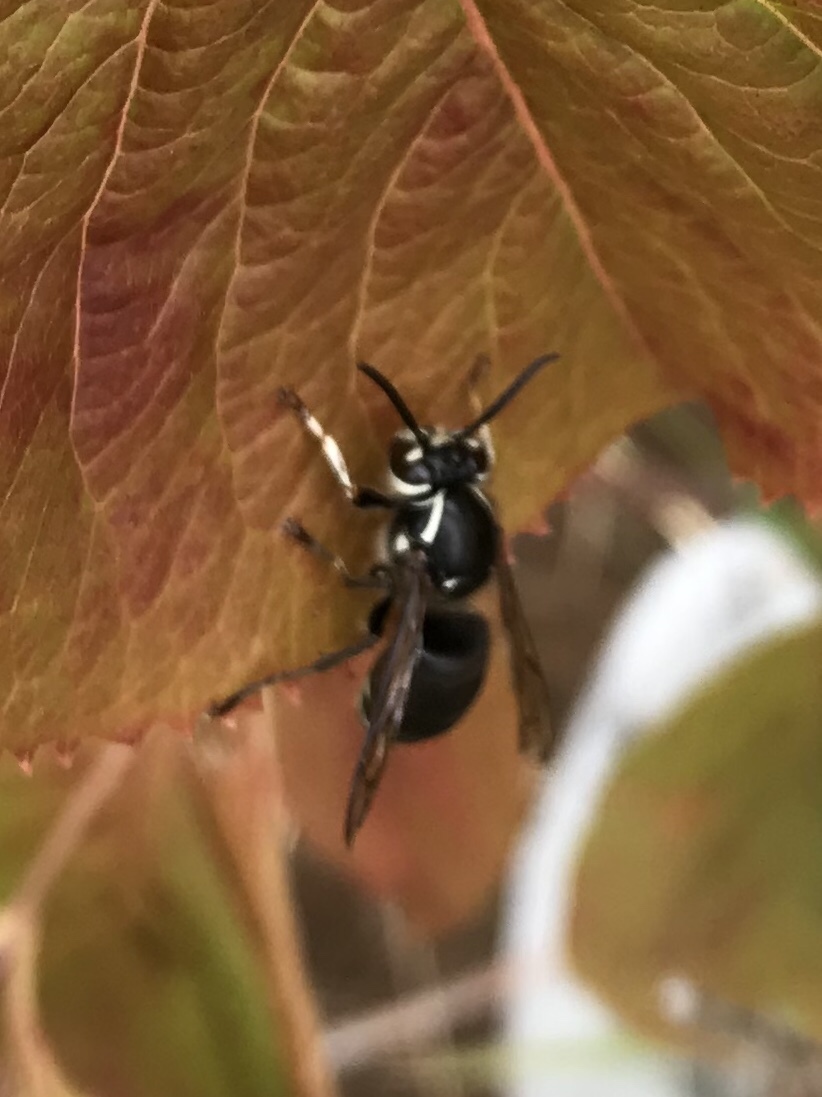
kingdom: Animalia
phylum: Arthropoda
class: Insecta
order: Hymenoptera
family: Vespidae
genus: Dolichovespula
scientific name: Dolichovespula maculata
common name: Bald-faced hornet
